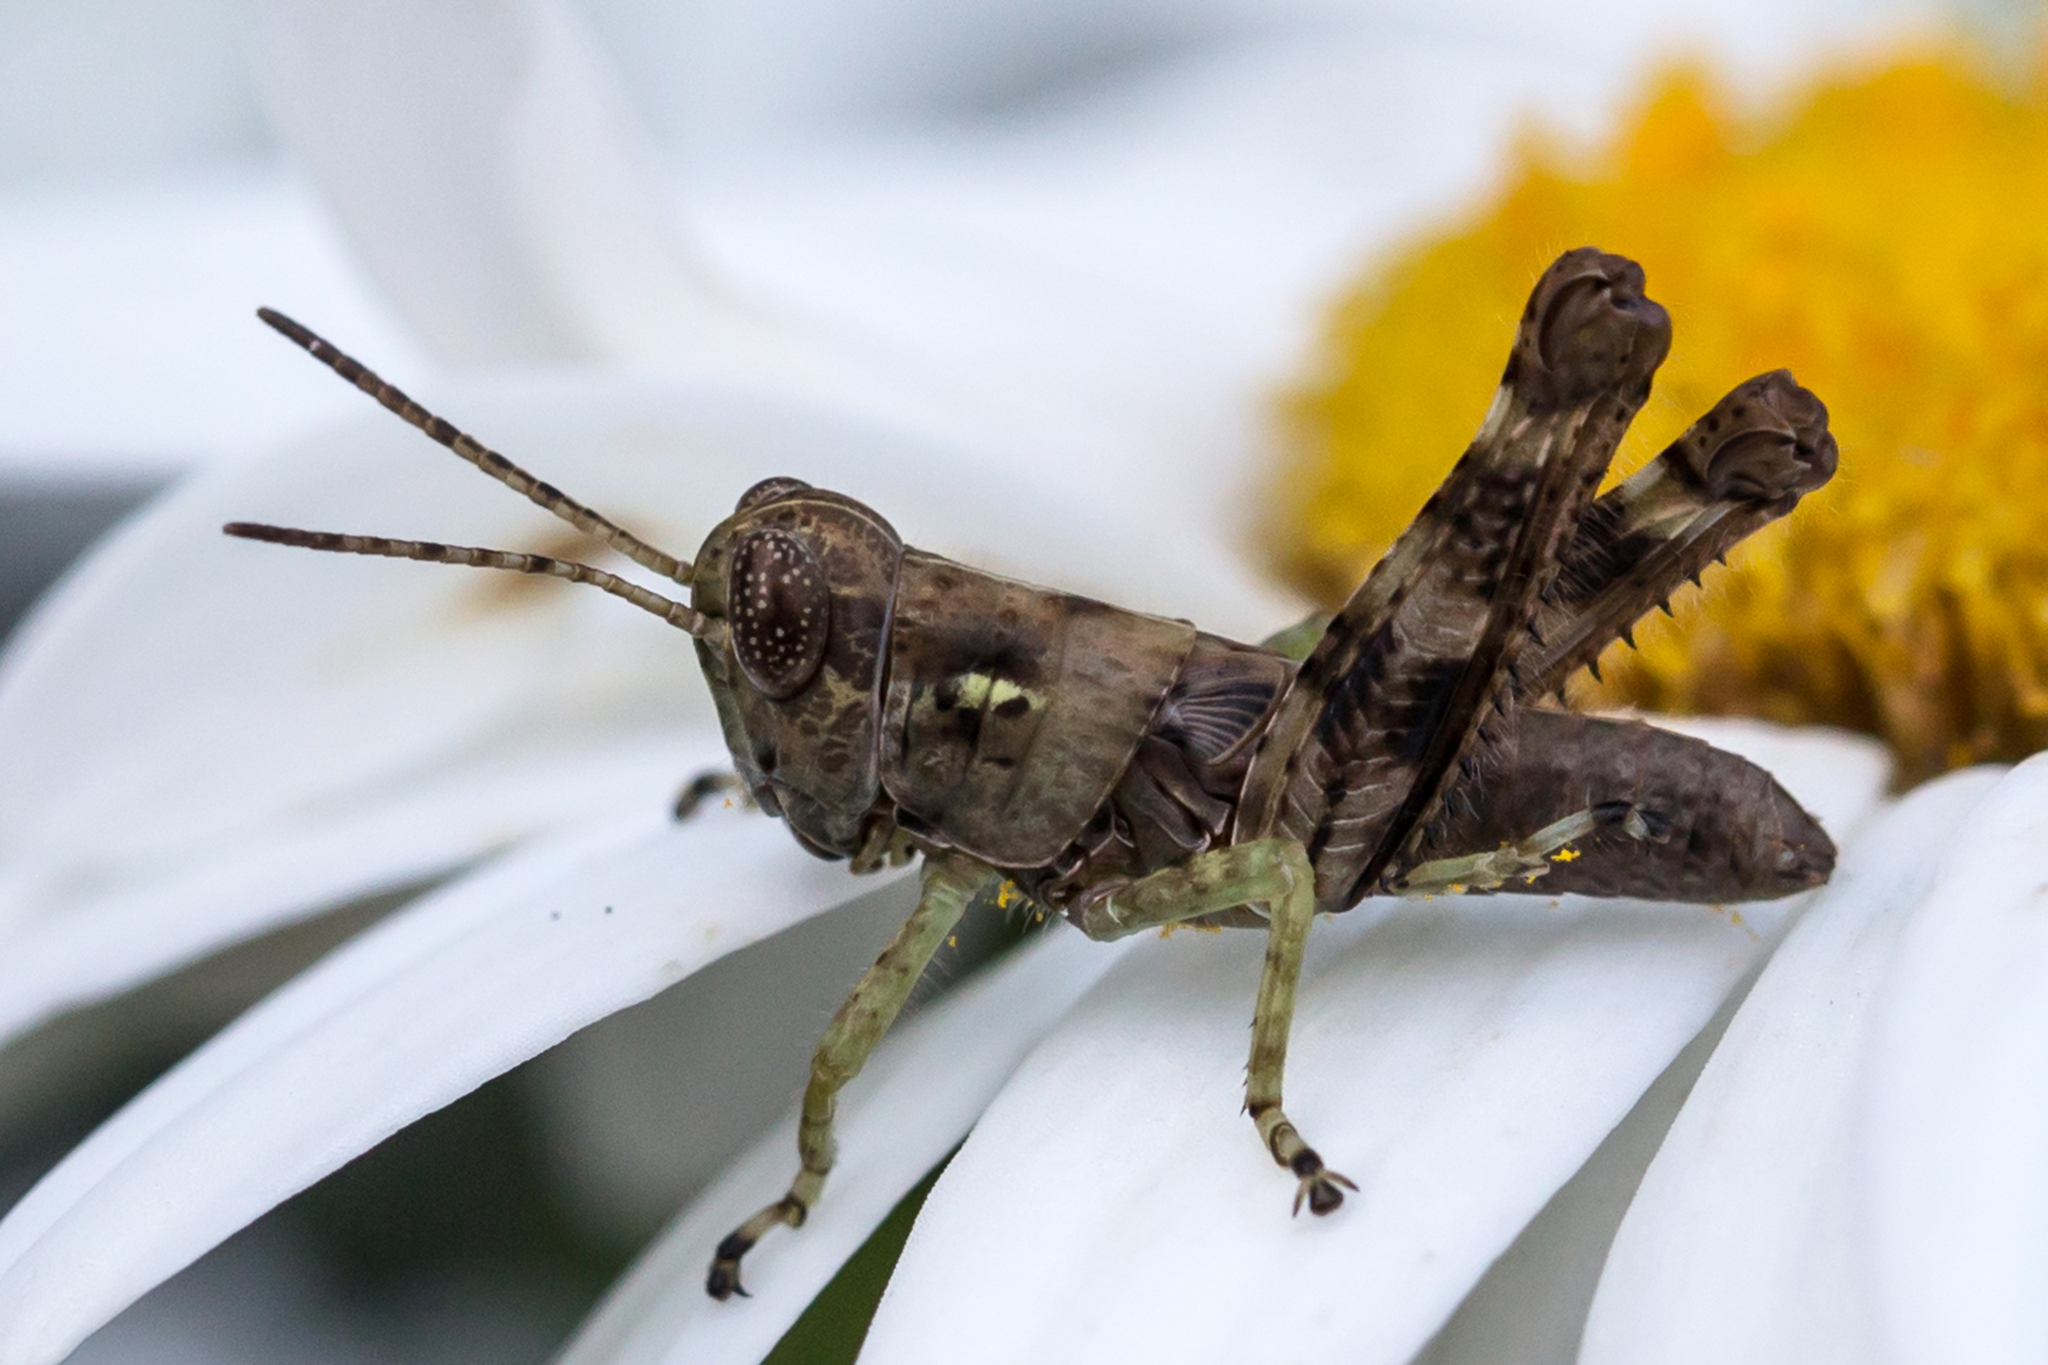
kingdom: Animalia
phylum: Arthropoda
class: Insecta
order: Orthoptera
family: Acrididae
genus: Melanoplus
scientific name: Melanoplus punctulatus
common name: Pine-tree spur-throat grasshopper
